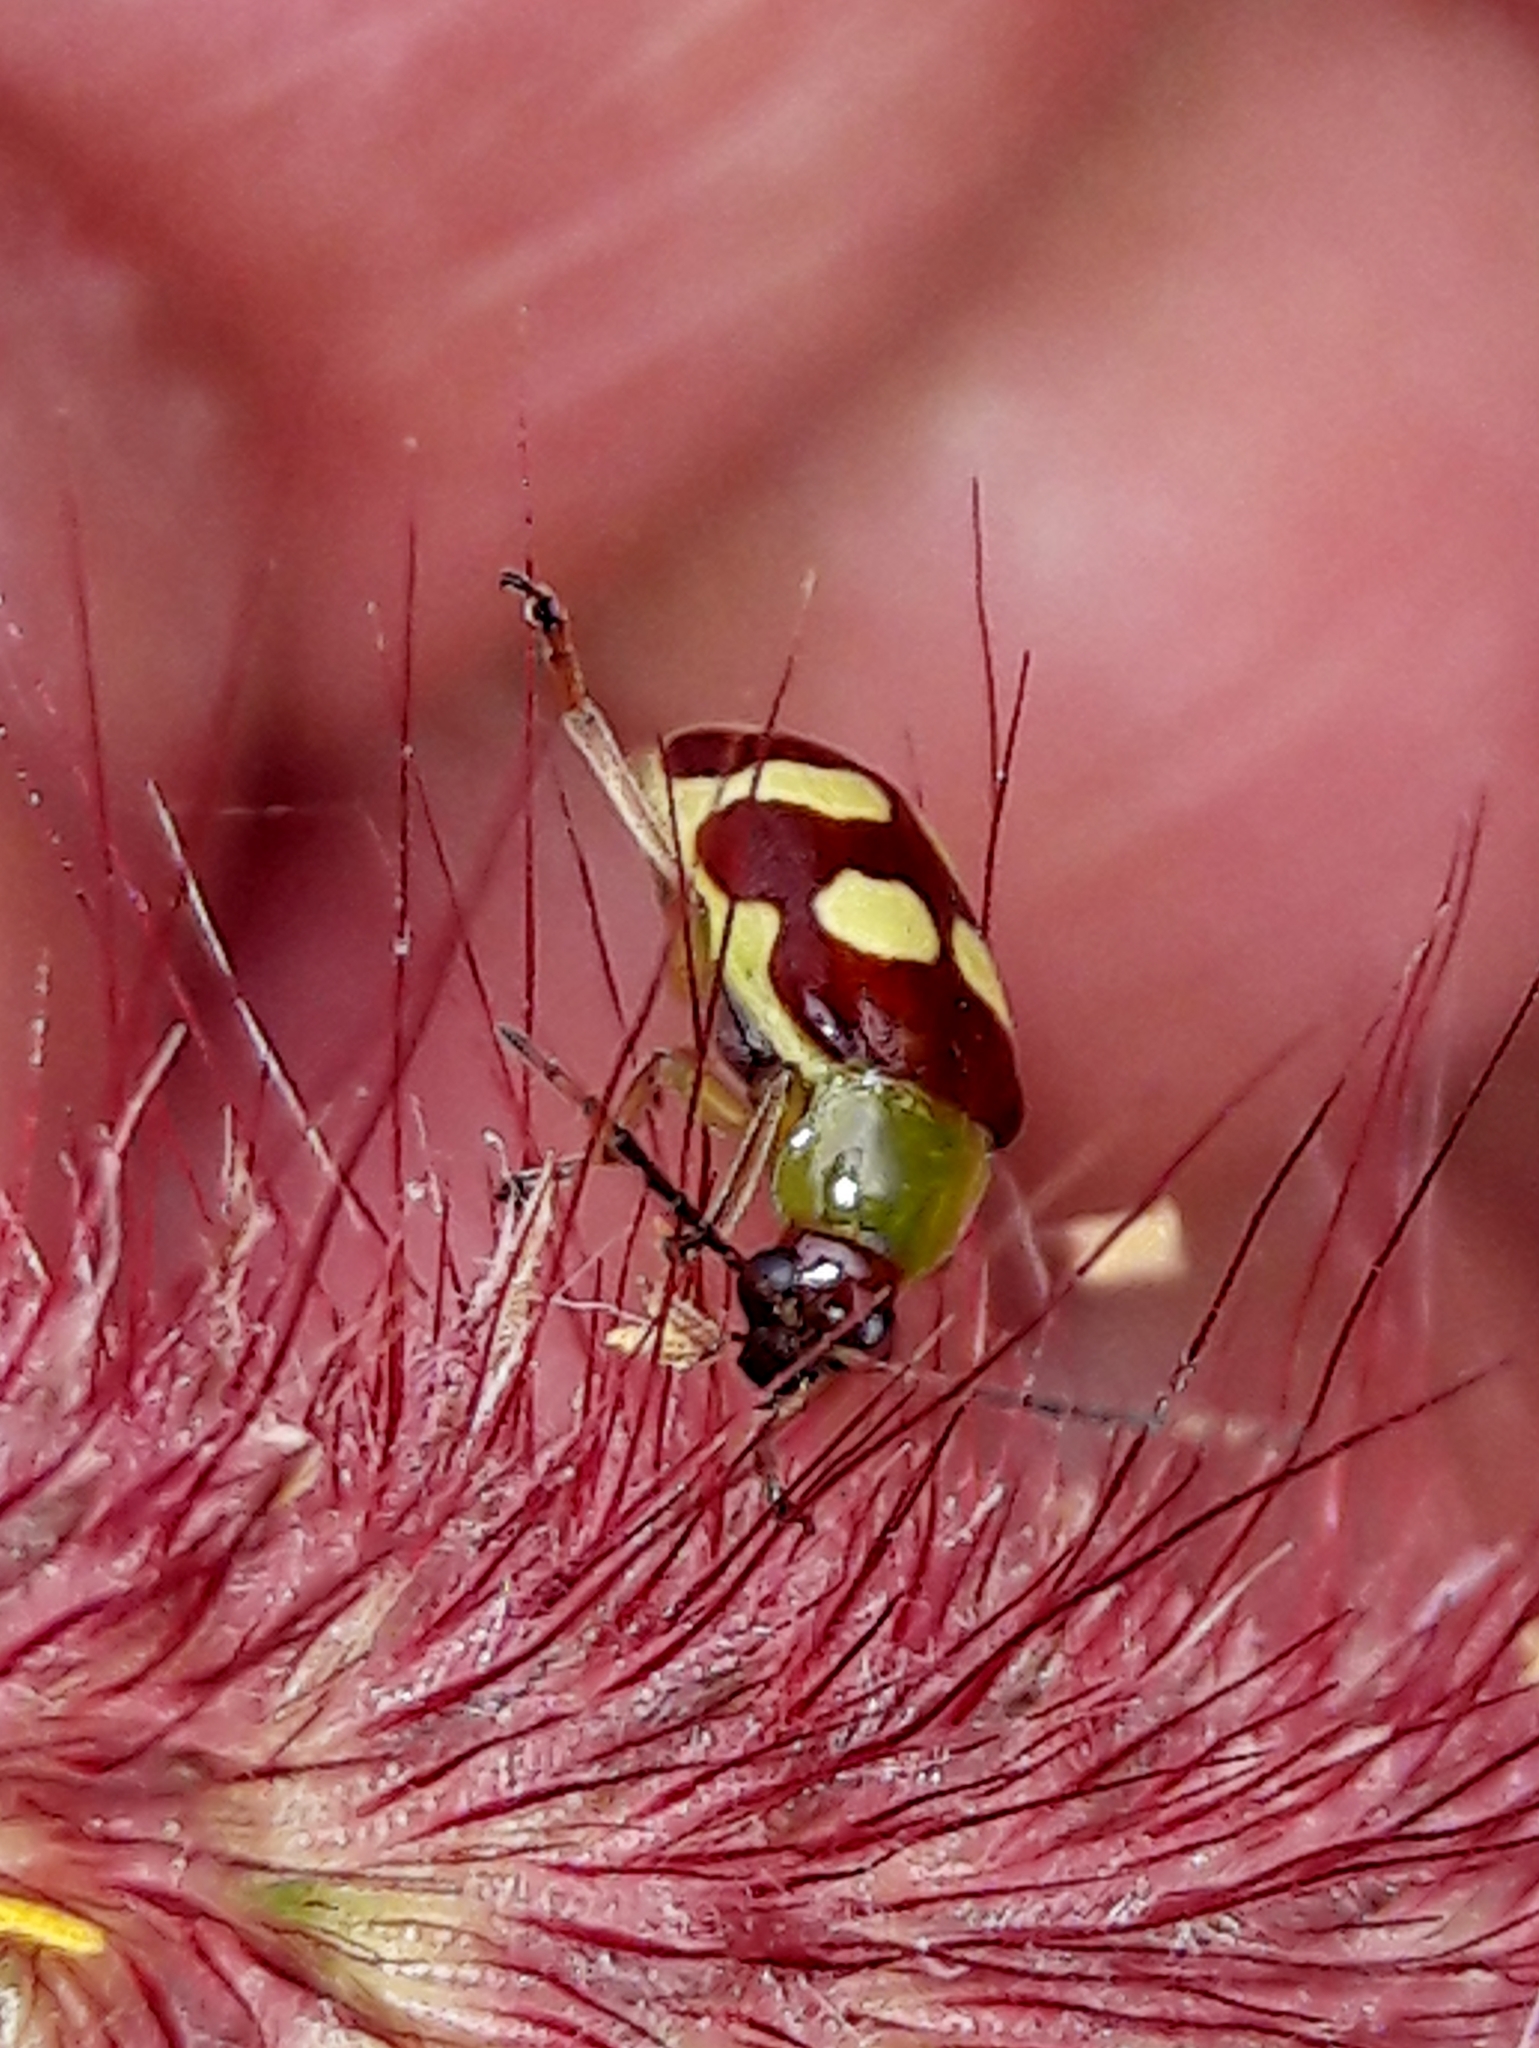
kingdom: Animalia
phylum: Arthropoda
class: Insecta
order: Coleoptera
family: Chrysomelidae
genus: Basiprionota
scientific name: Basiprionota sinuata
